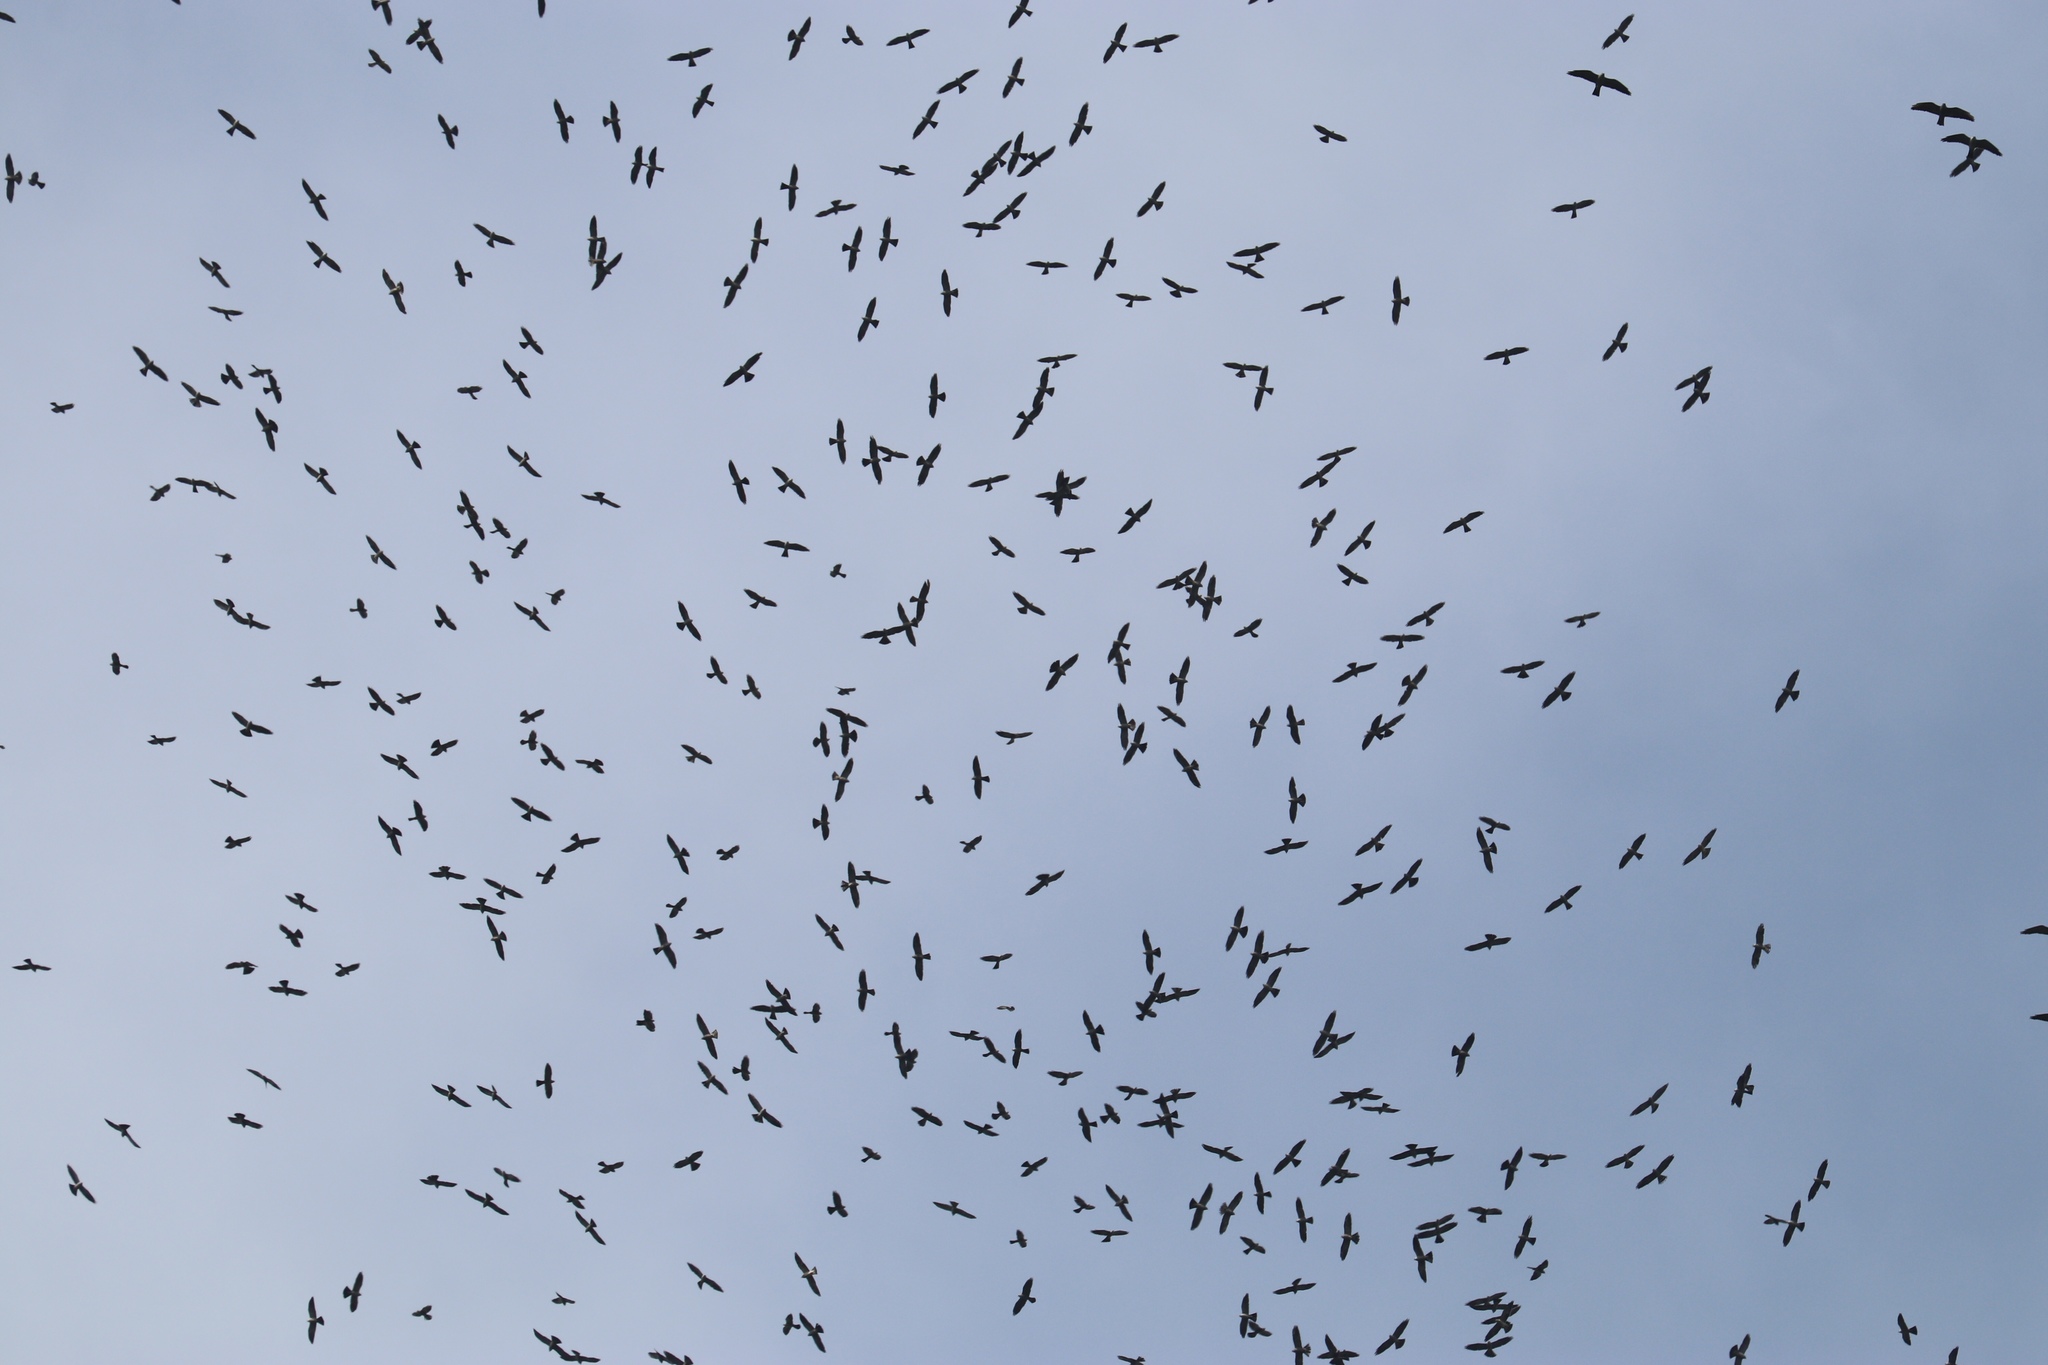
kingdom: Animalia
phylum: Chordata
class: Aves
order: Accipitriformes
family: Accipitridae
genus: Ictinia
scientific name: Ictinia mississippiensis
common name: Mississippi kite
